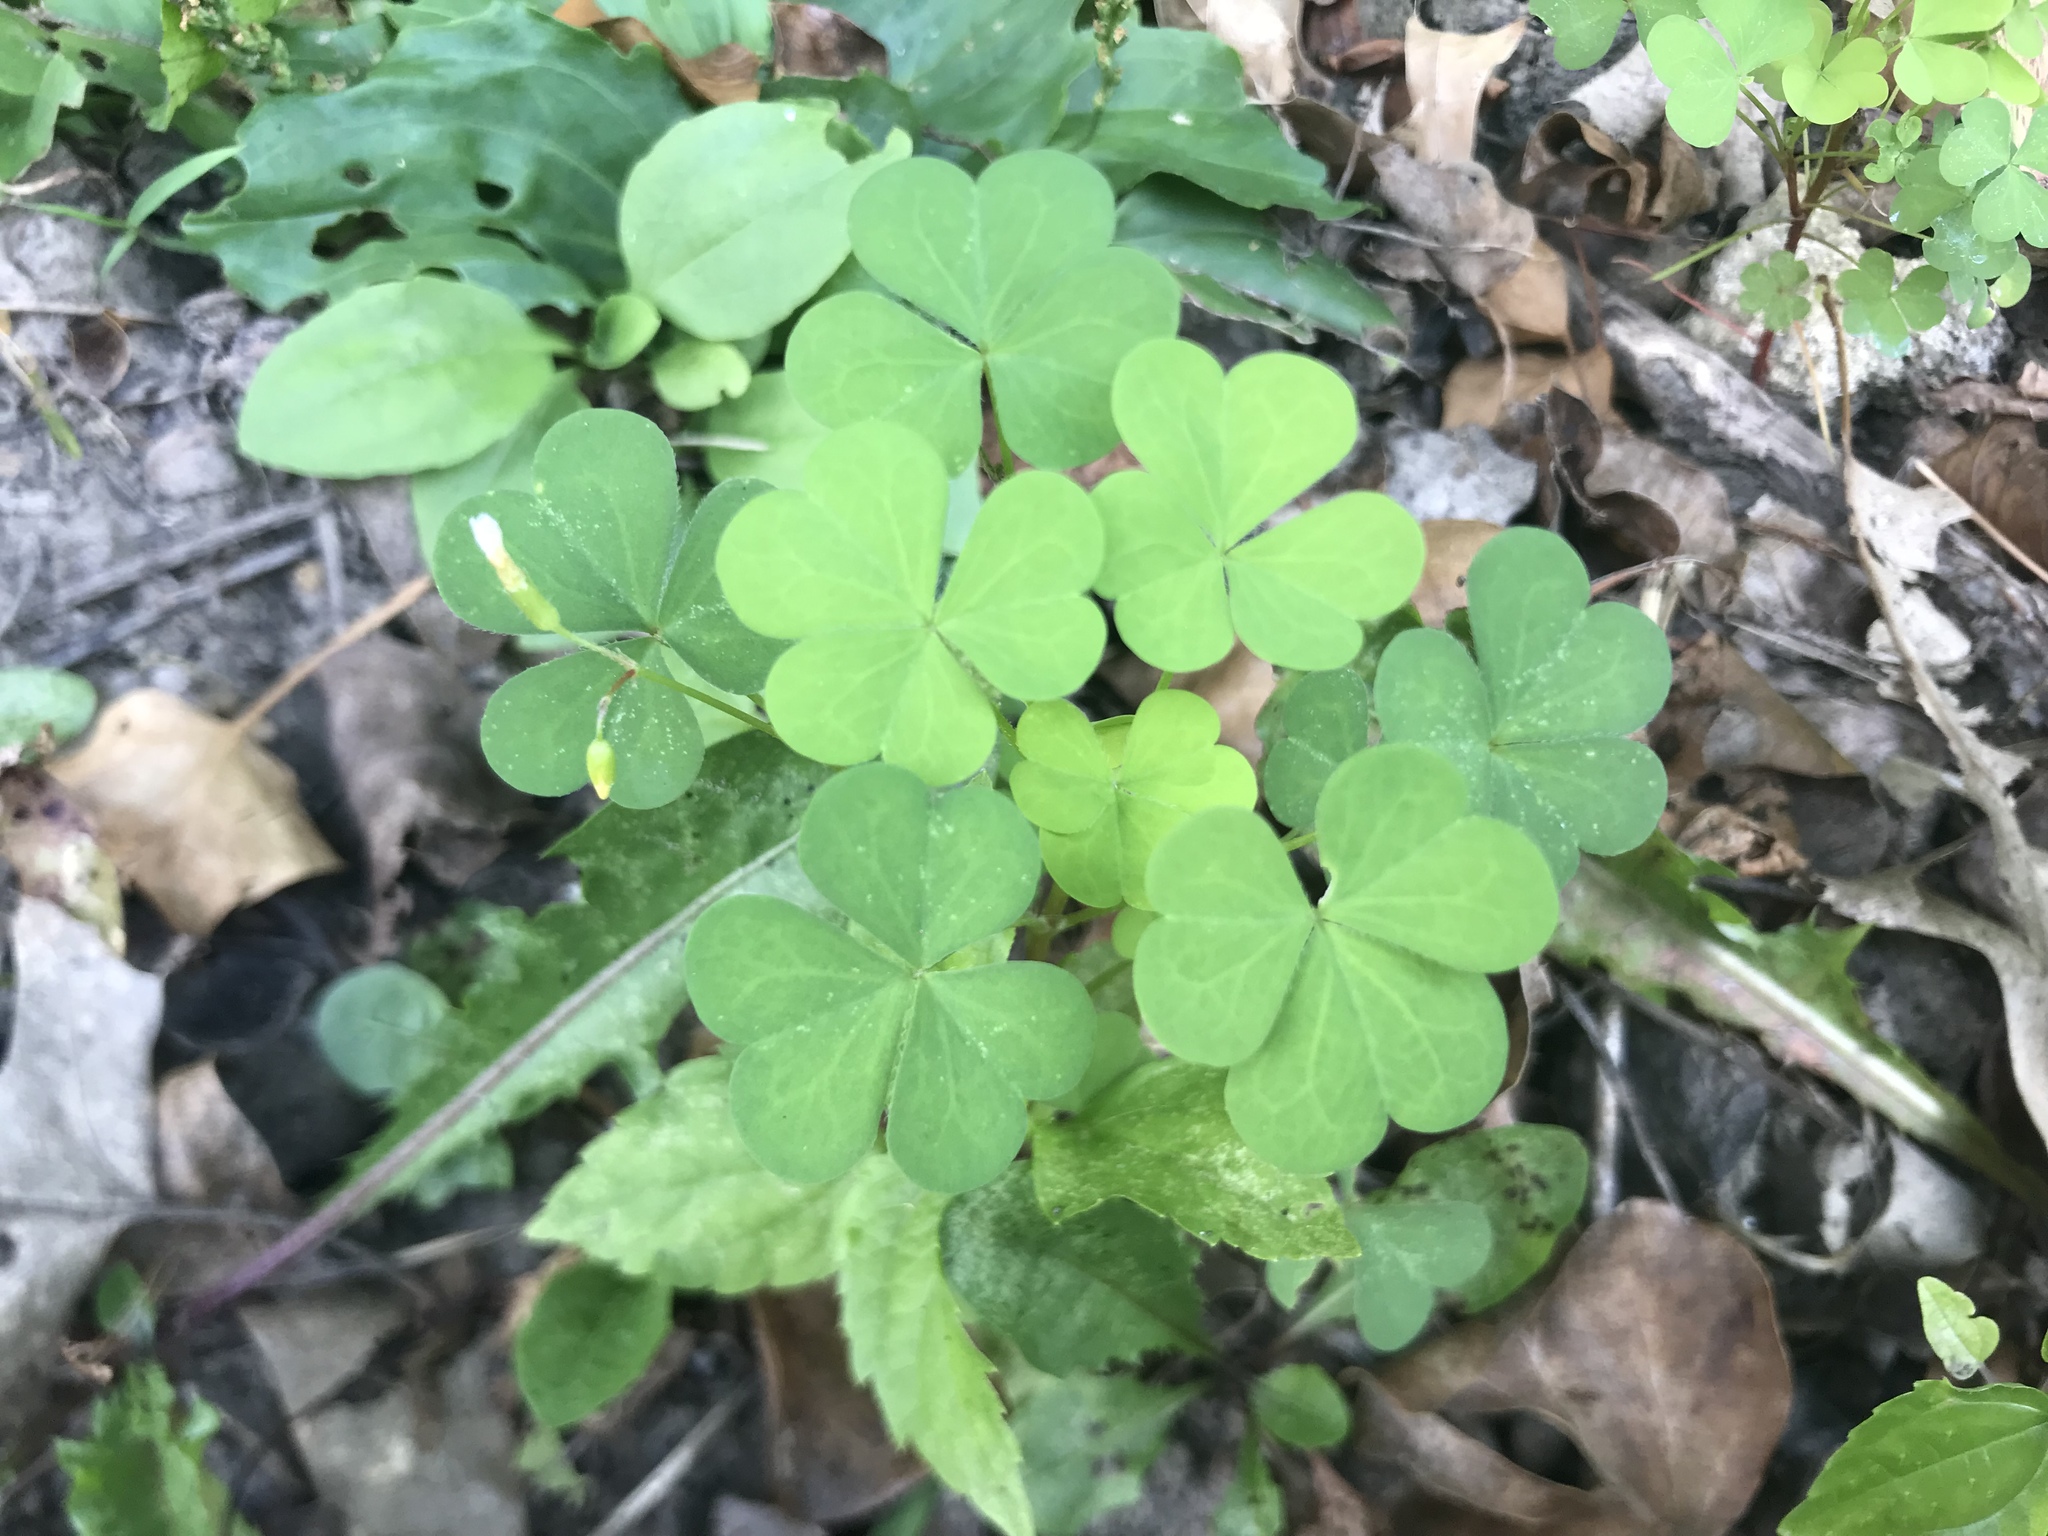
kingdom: Plantae
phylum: Tracheophyta
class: Magnoliopsida
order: Oxalidales
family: Oxalidaceae
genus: Oxalis
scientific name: Oxalis dillenii
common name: Sussex yellow-sorrel
